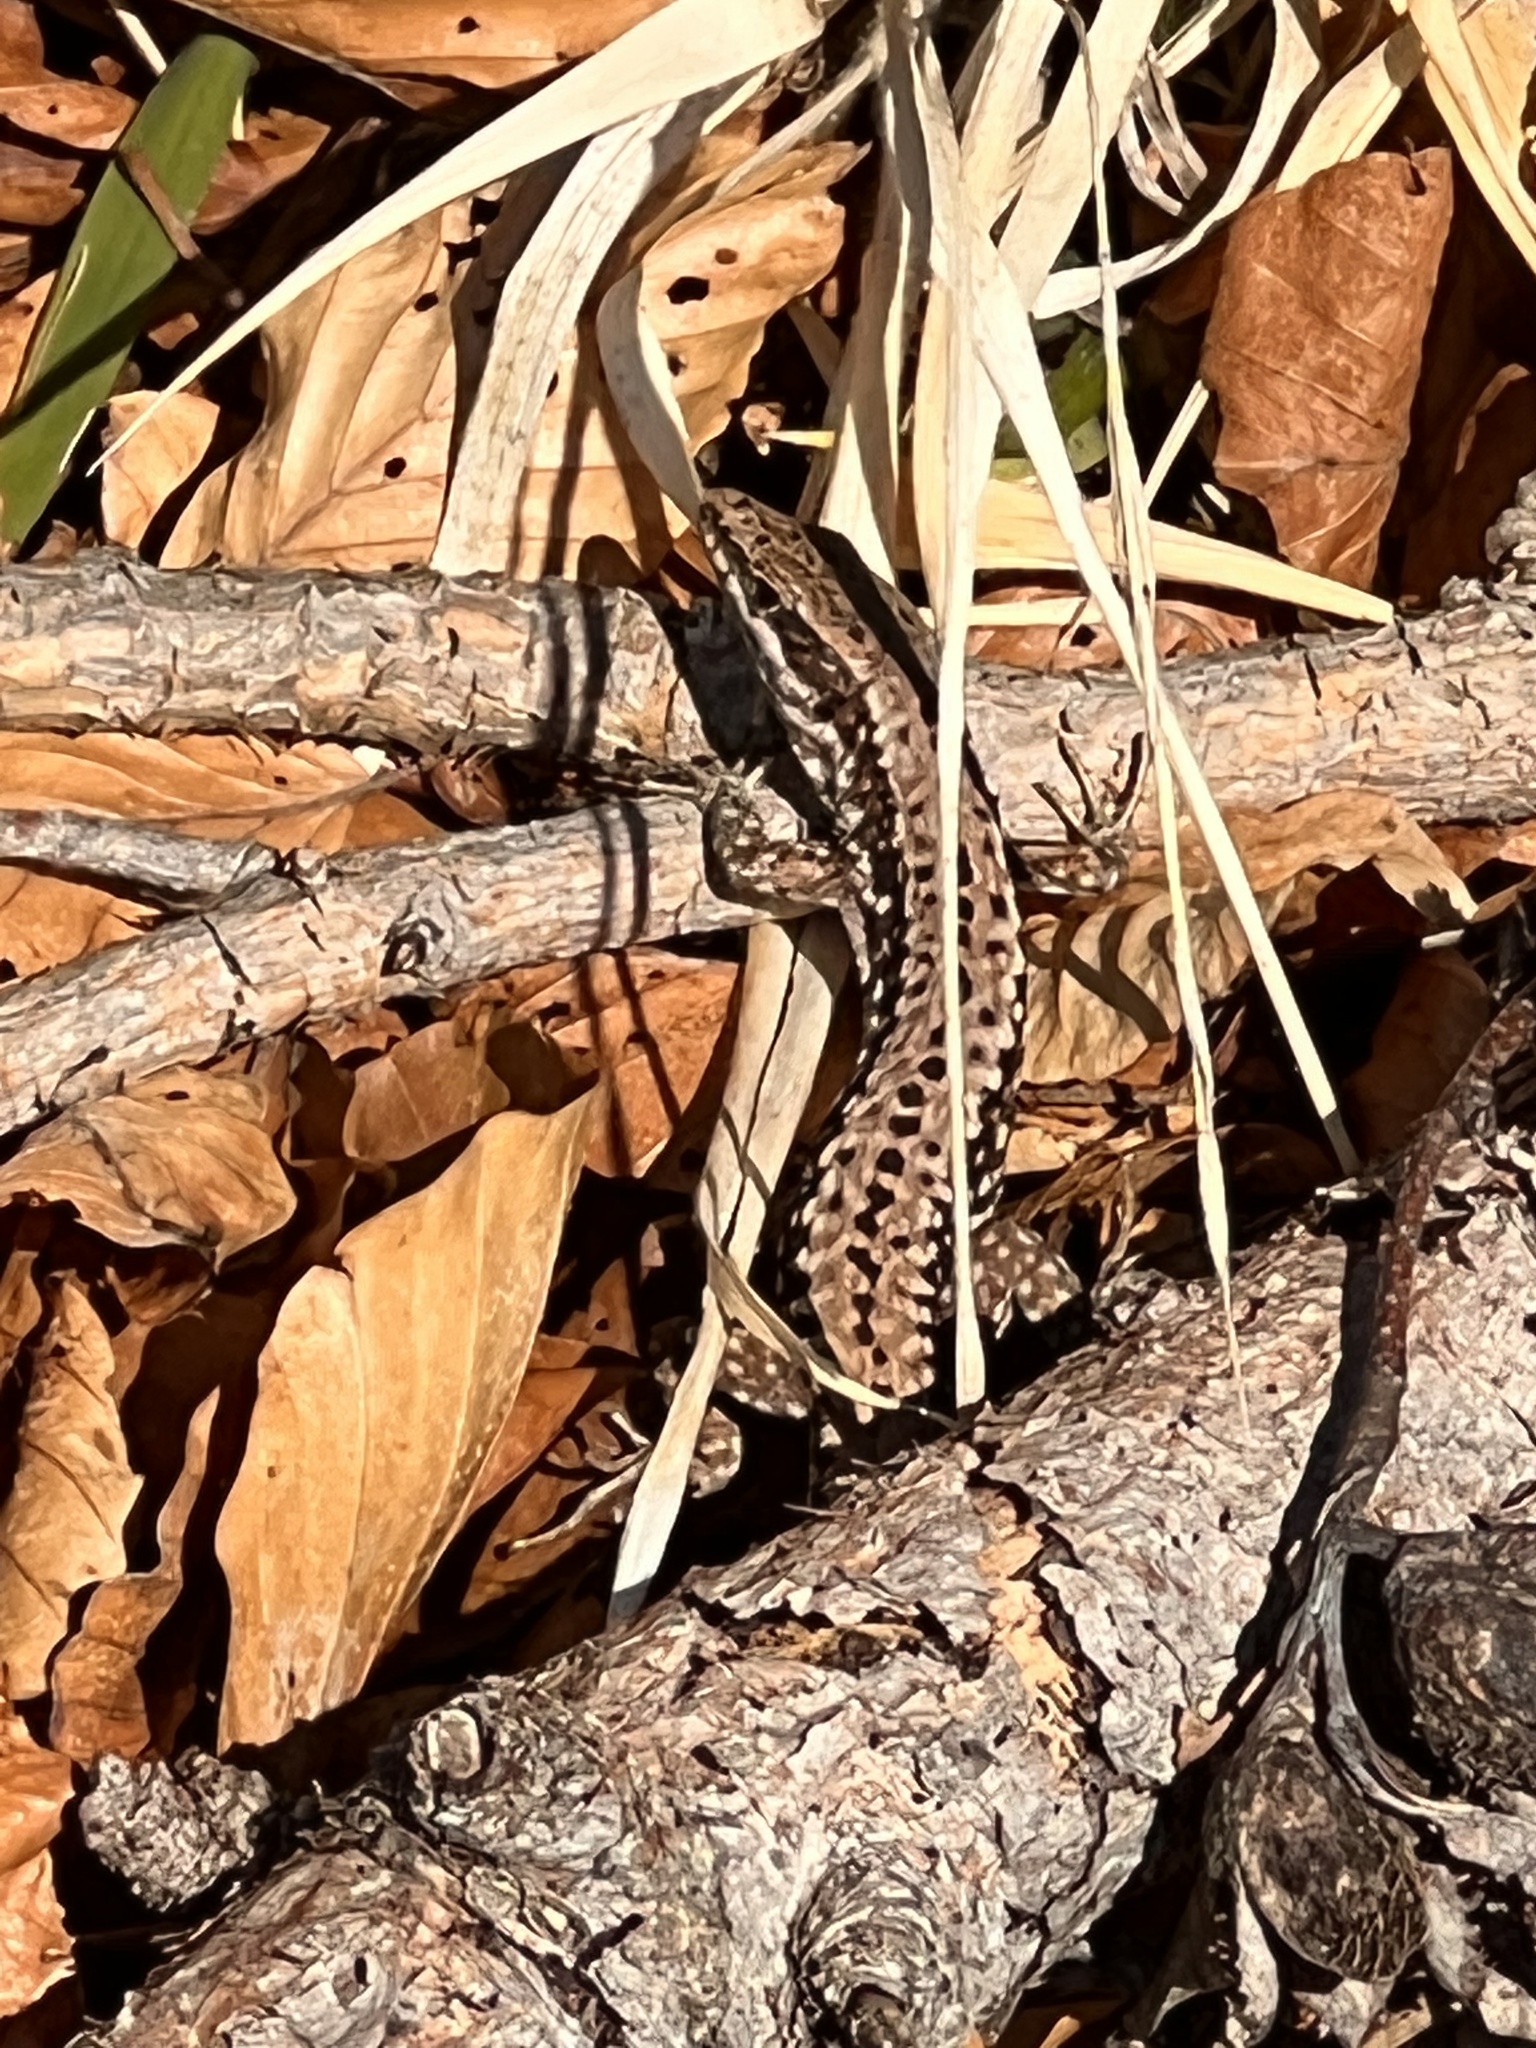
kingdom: Animalia
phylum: Chordata
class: Squamata
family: Lacertidae
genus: Podarcis
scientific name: Podarcis muralis
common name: Common wall lizard
